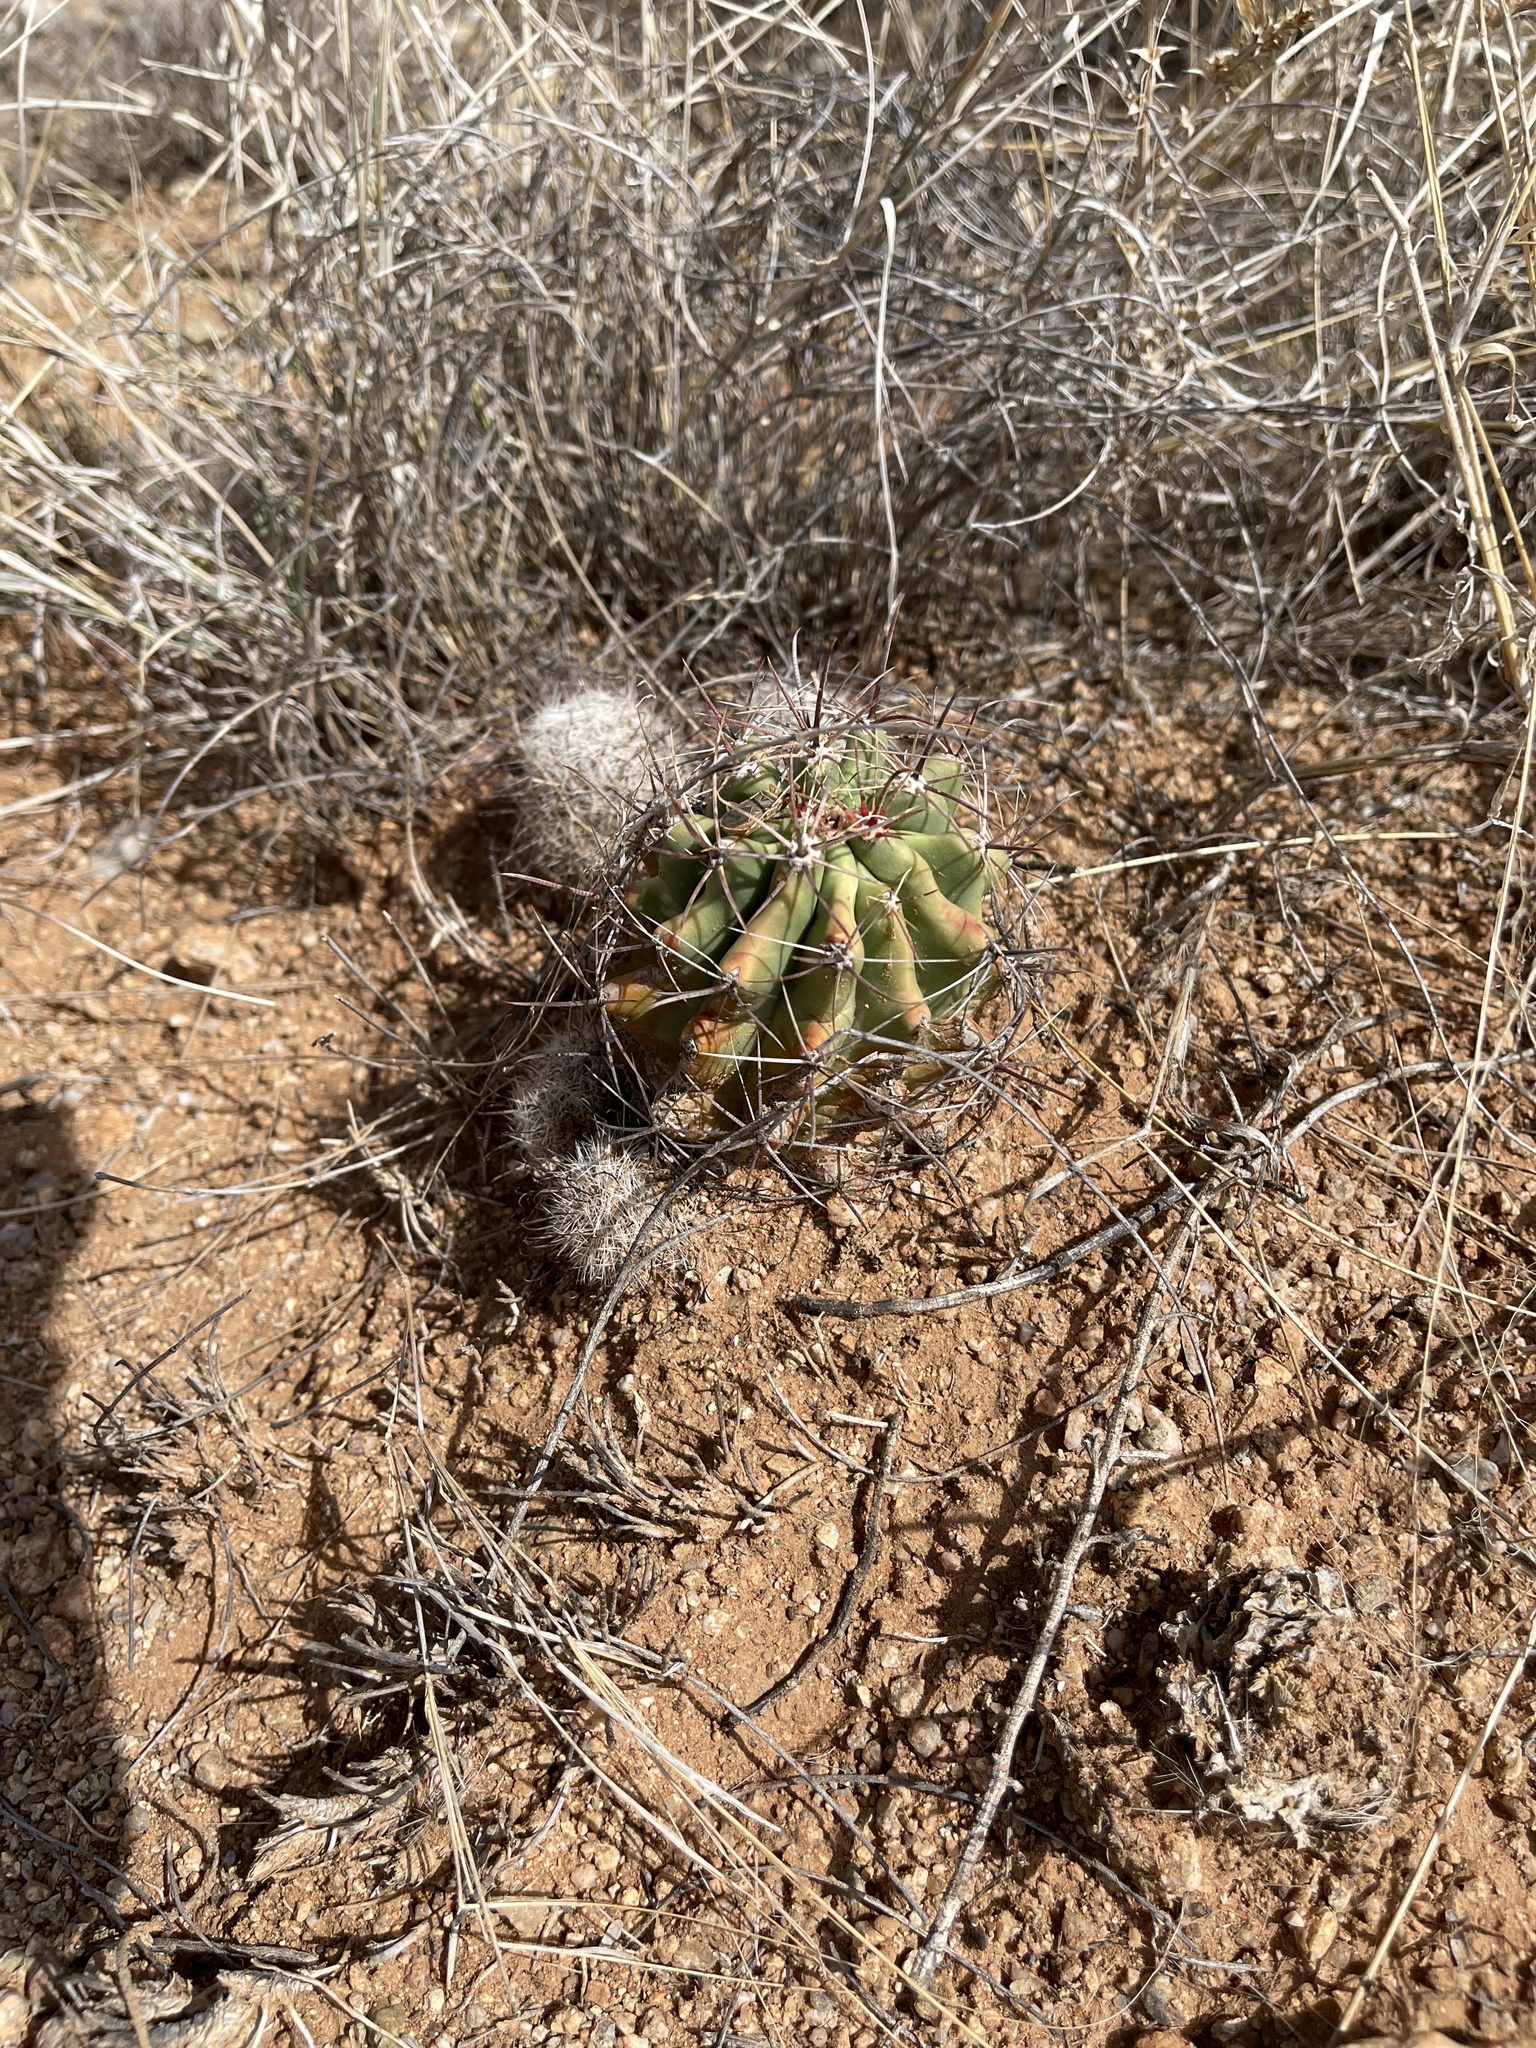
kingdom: Plantae
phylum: Tracheophyta
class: Magnoliopsida
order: Caryophyllales
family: Cactaceae
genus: Ferocactus
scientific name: Ferocactus wislizeni
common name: Candy barrel cactus
